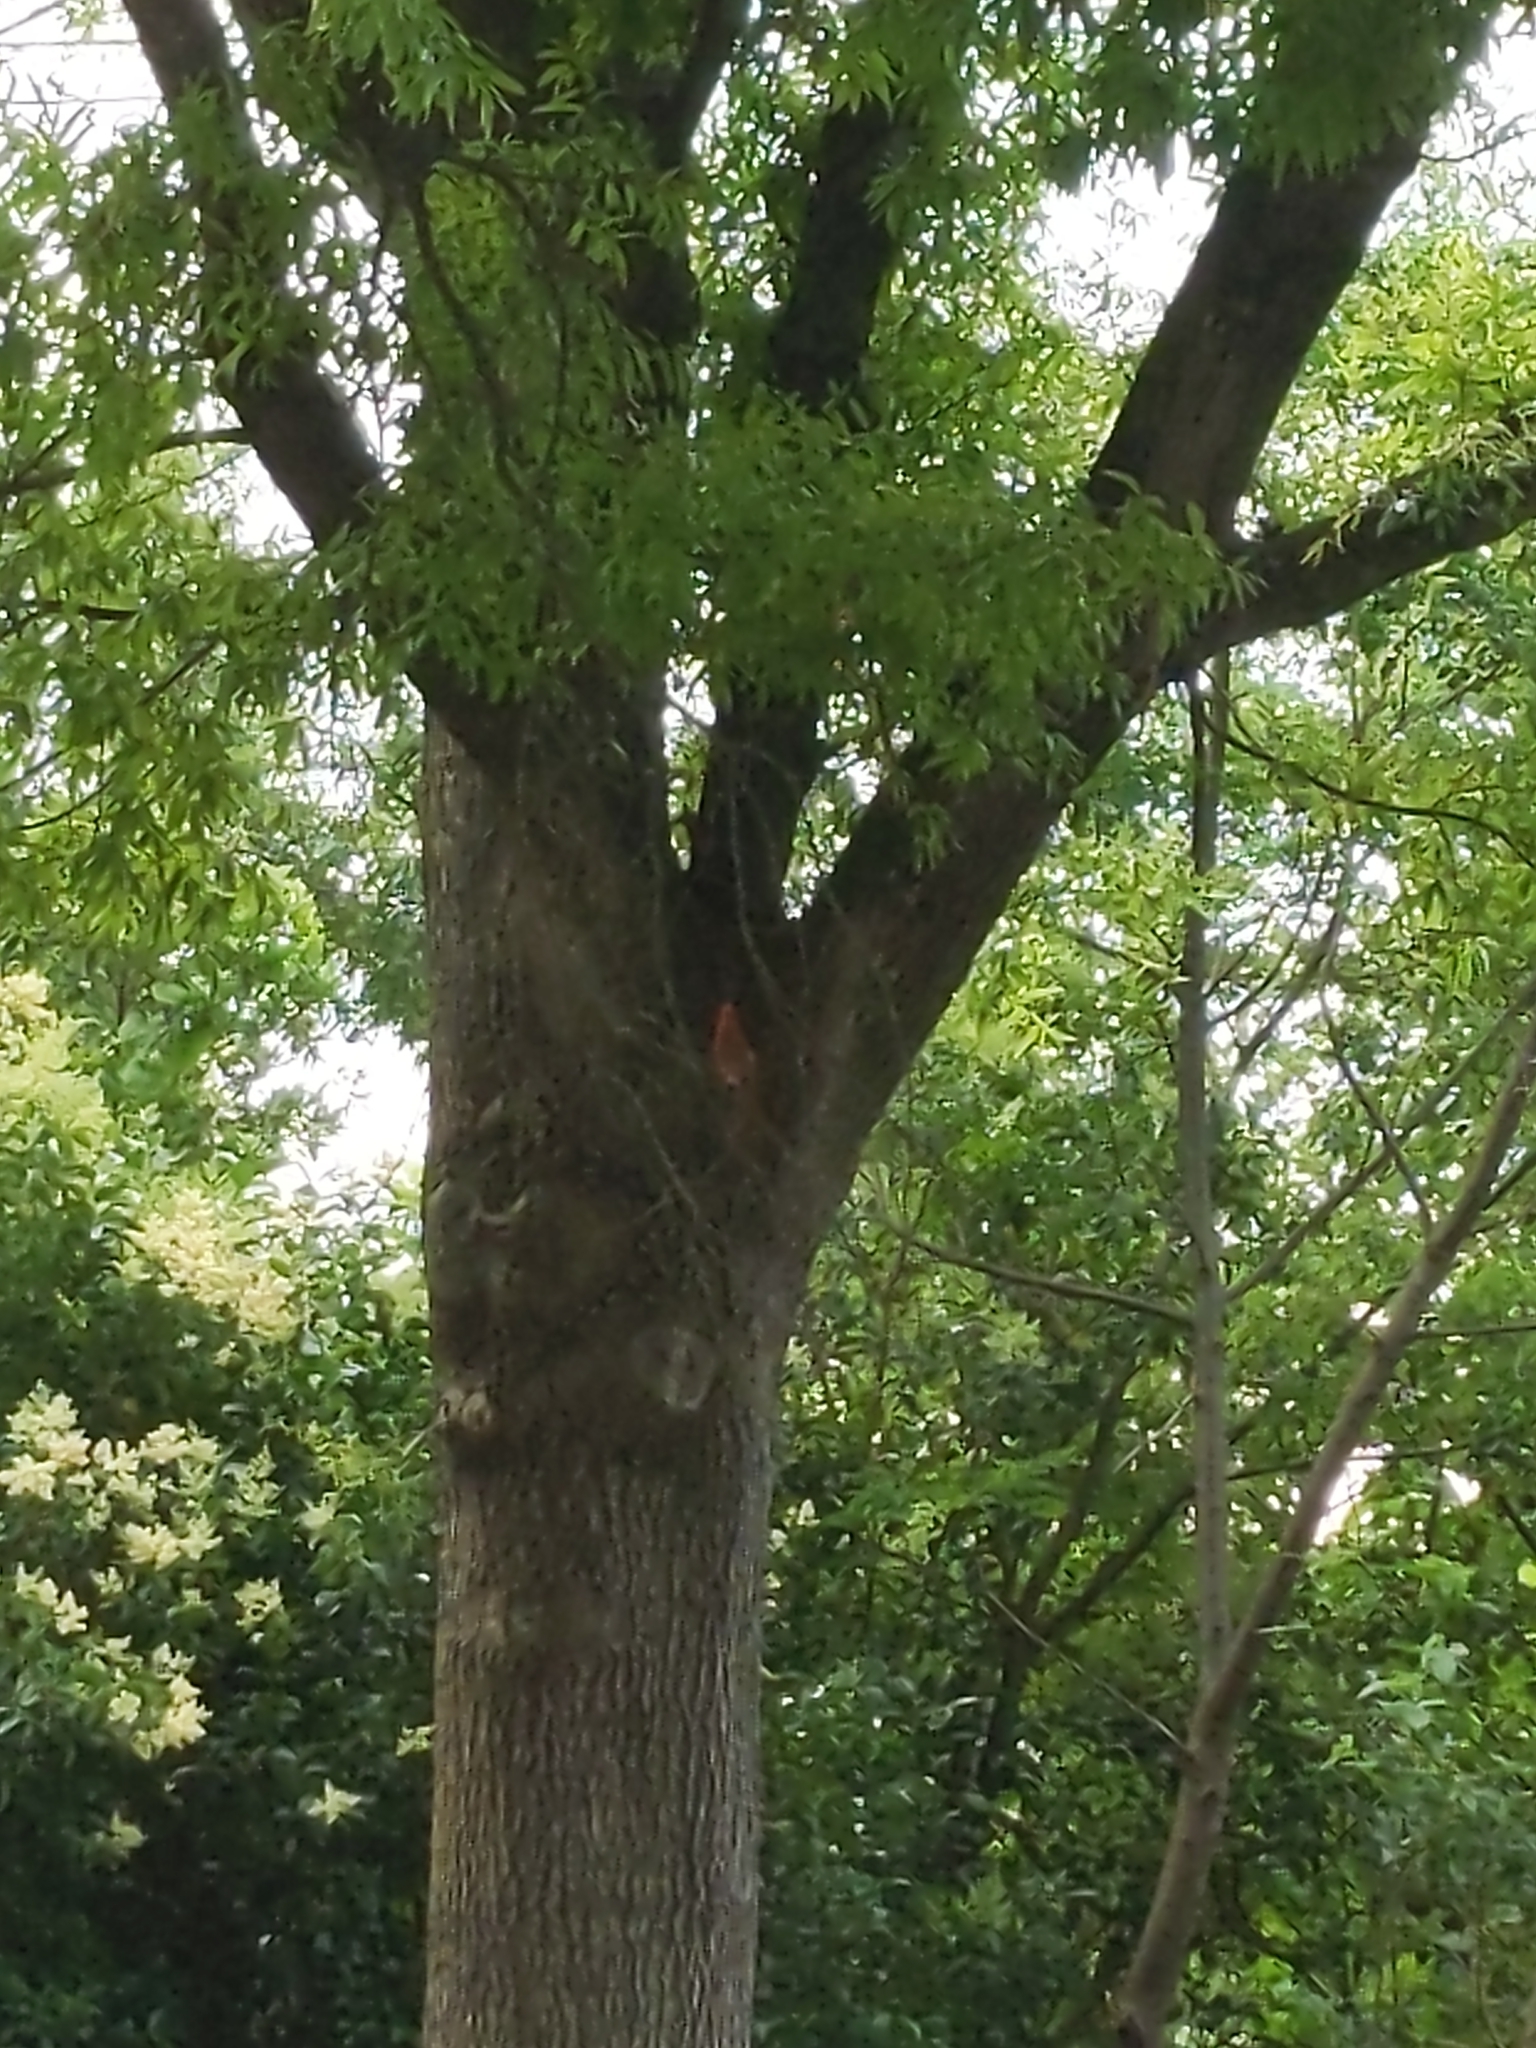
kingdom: Animalia
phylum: Chordata
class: Aves
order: Passeriformes
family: Cardinalidae
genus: Cardinalis
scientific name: Cardinalis cardinalis
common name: Northern cardinal
